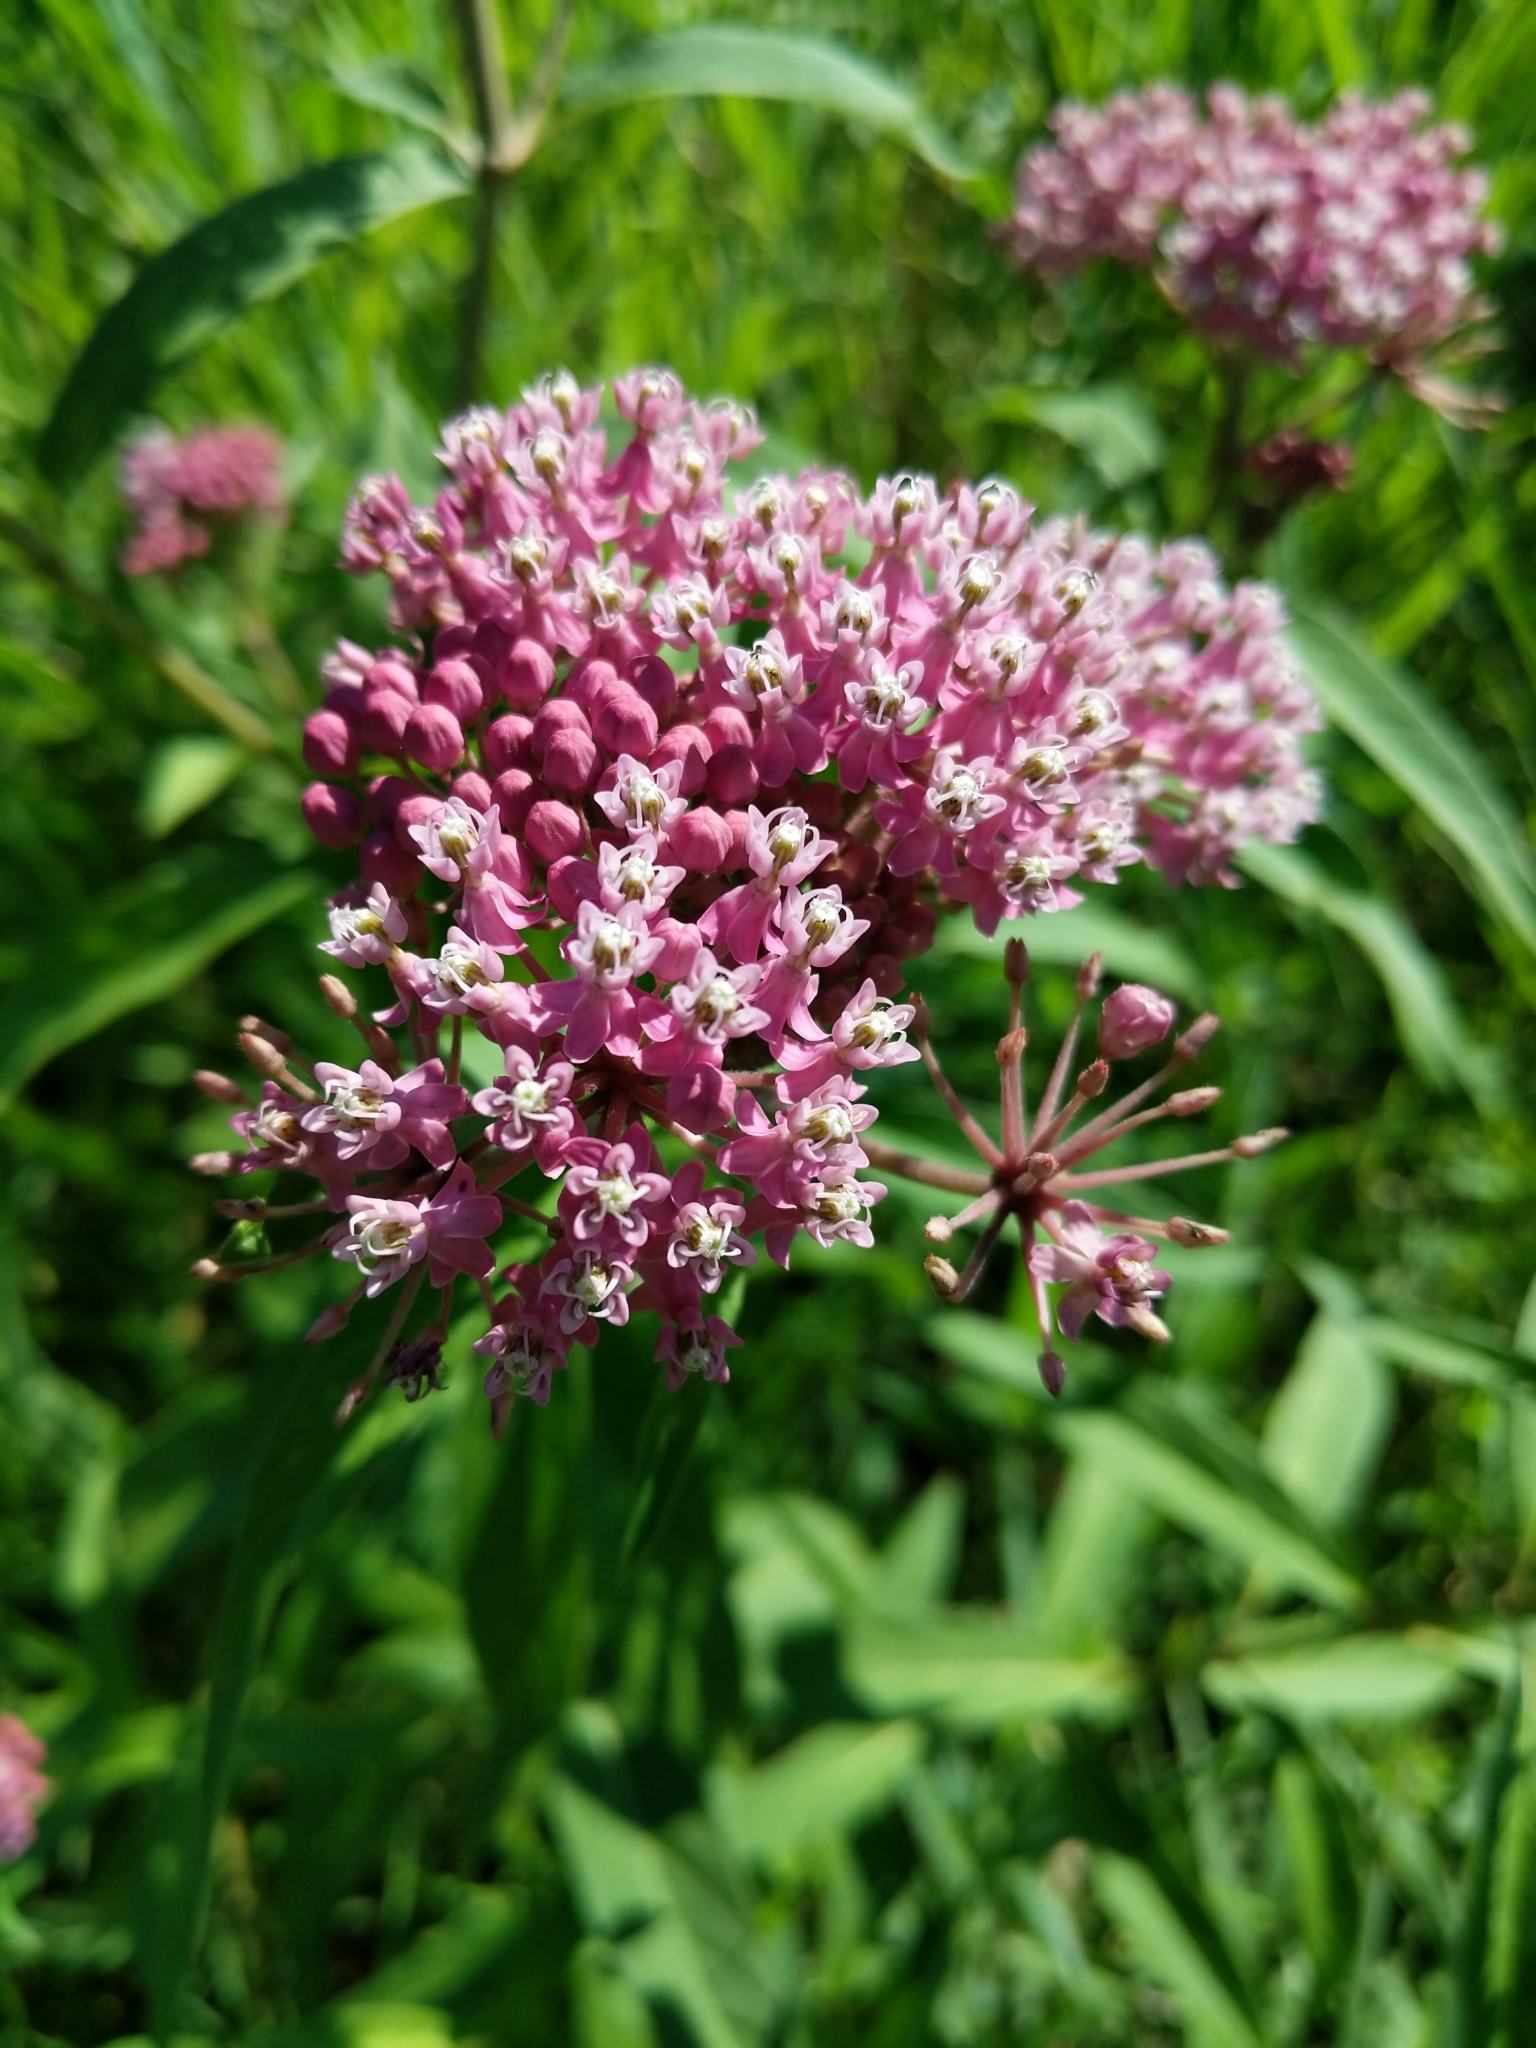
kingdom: Plantae
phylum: Tracheophyta
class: Magnoliopsida
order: Gentianales
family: Apocynaceae
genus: Asclepias
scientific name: Asclepias incarnata
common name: Swamp milkweed
